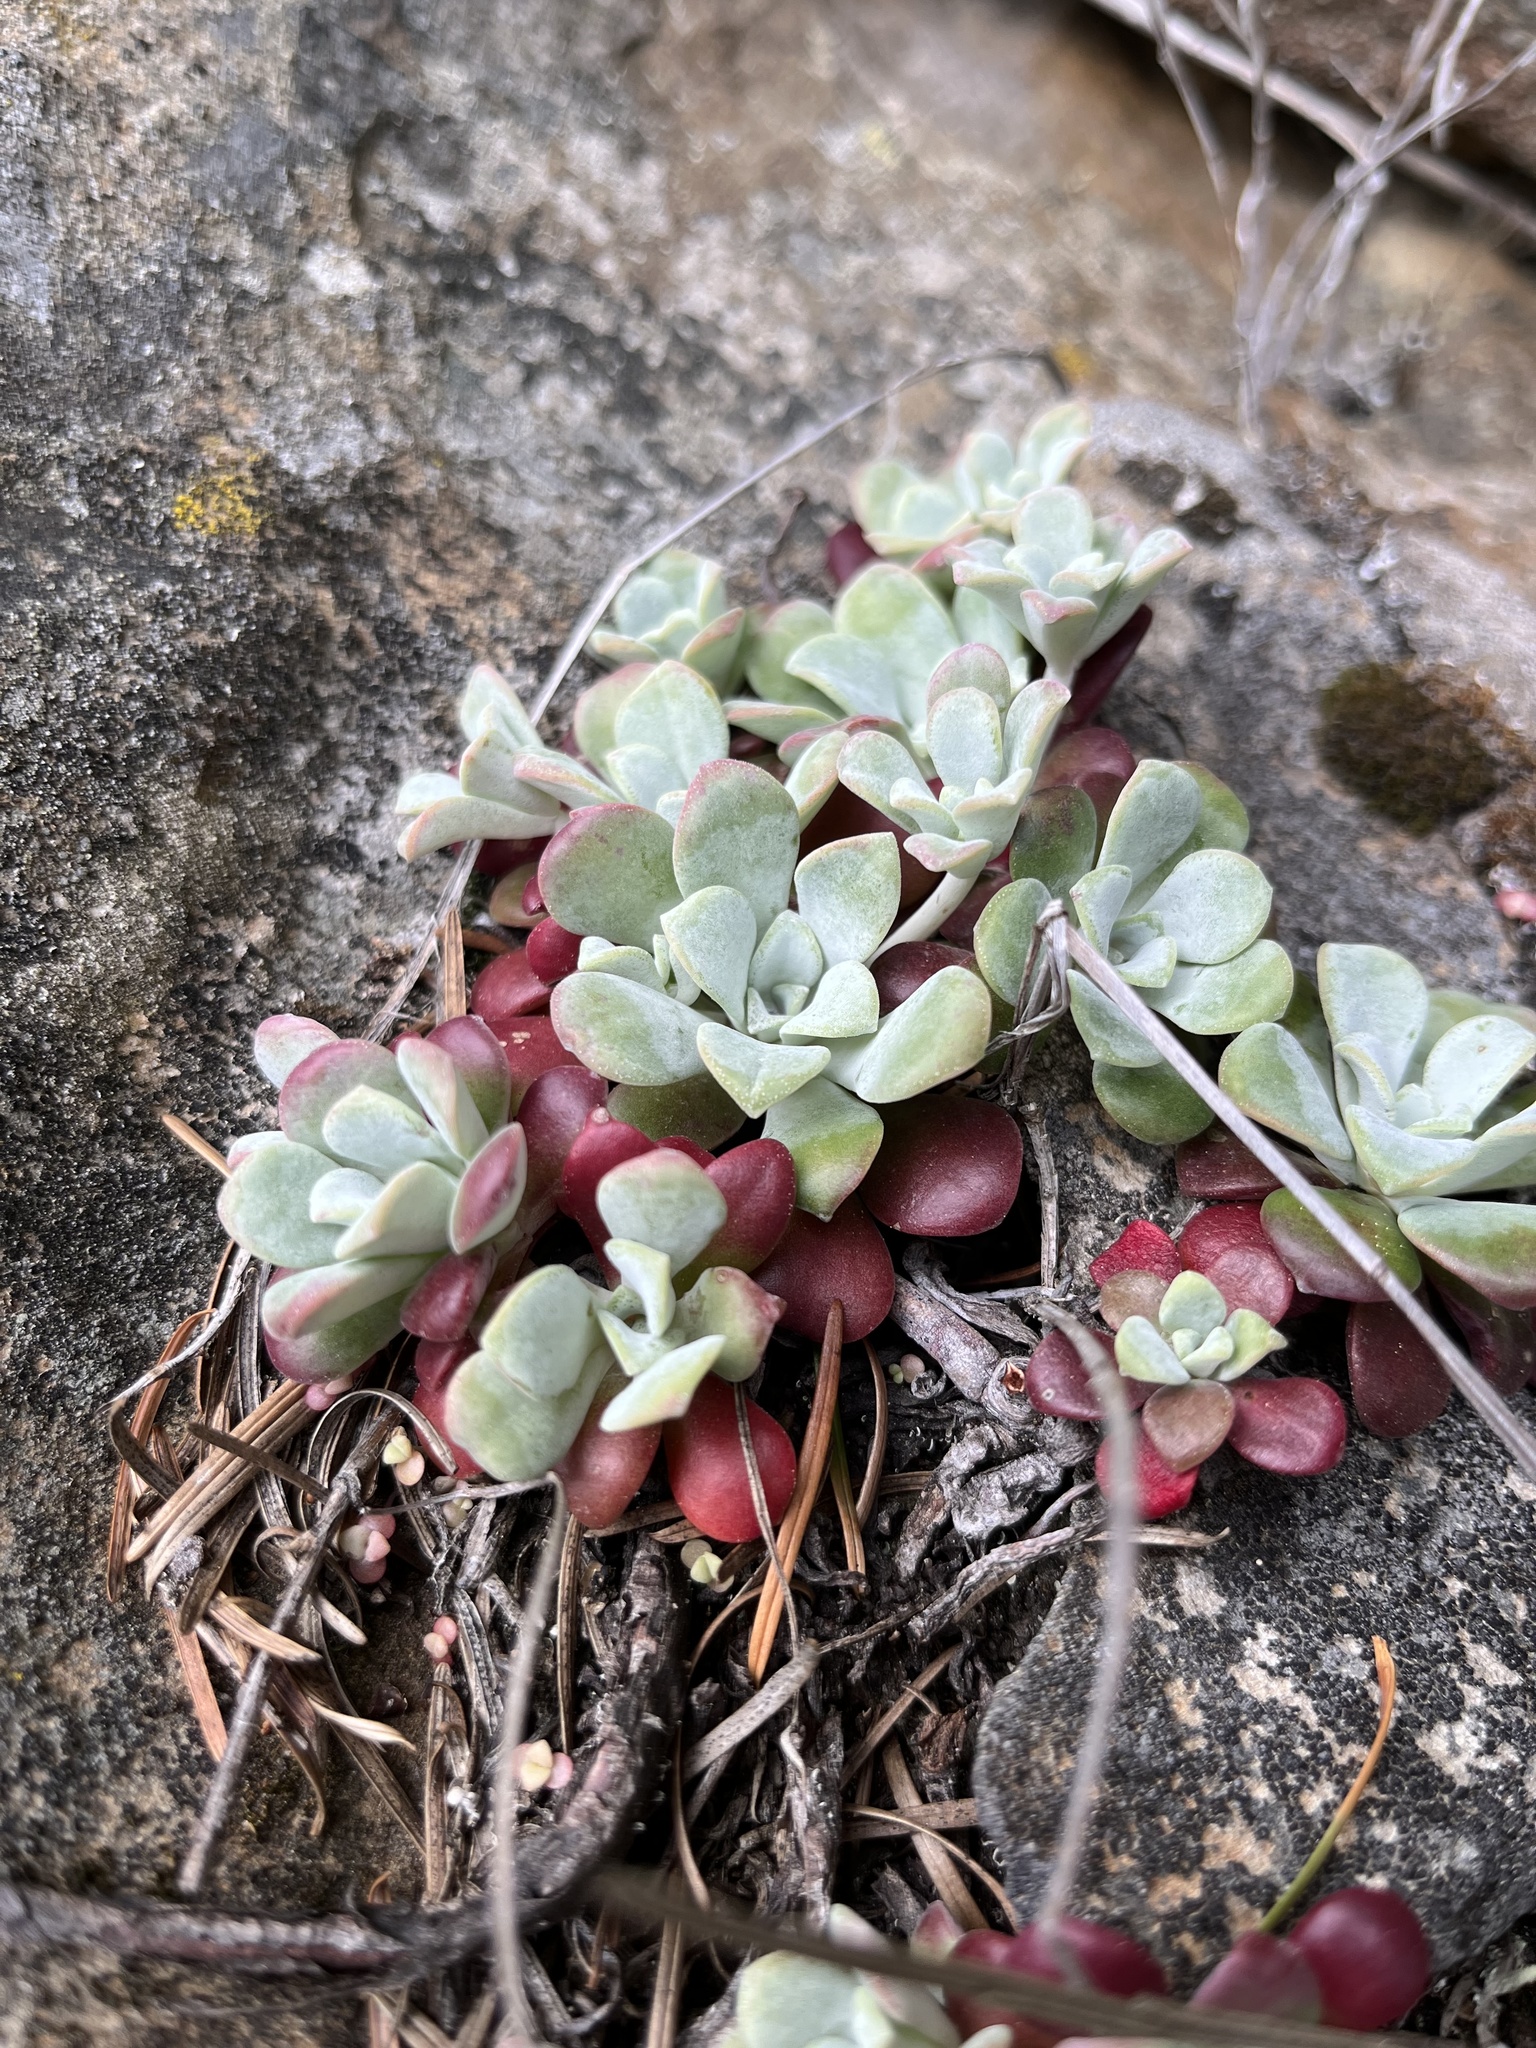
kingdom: Plantae
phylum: Tracheophyta
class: Magnoliopsida
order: Saxifragales
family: Crassulaceae
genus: Sedum
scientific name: Sedum spathulifolium
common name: Colorado stonecrop
